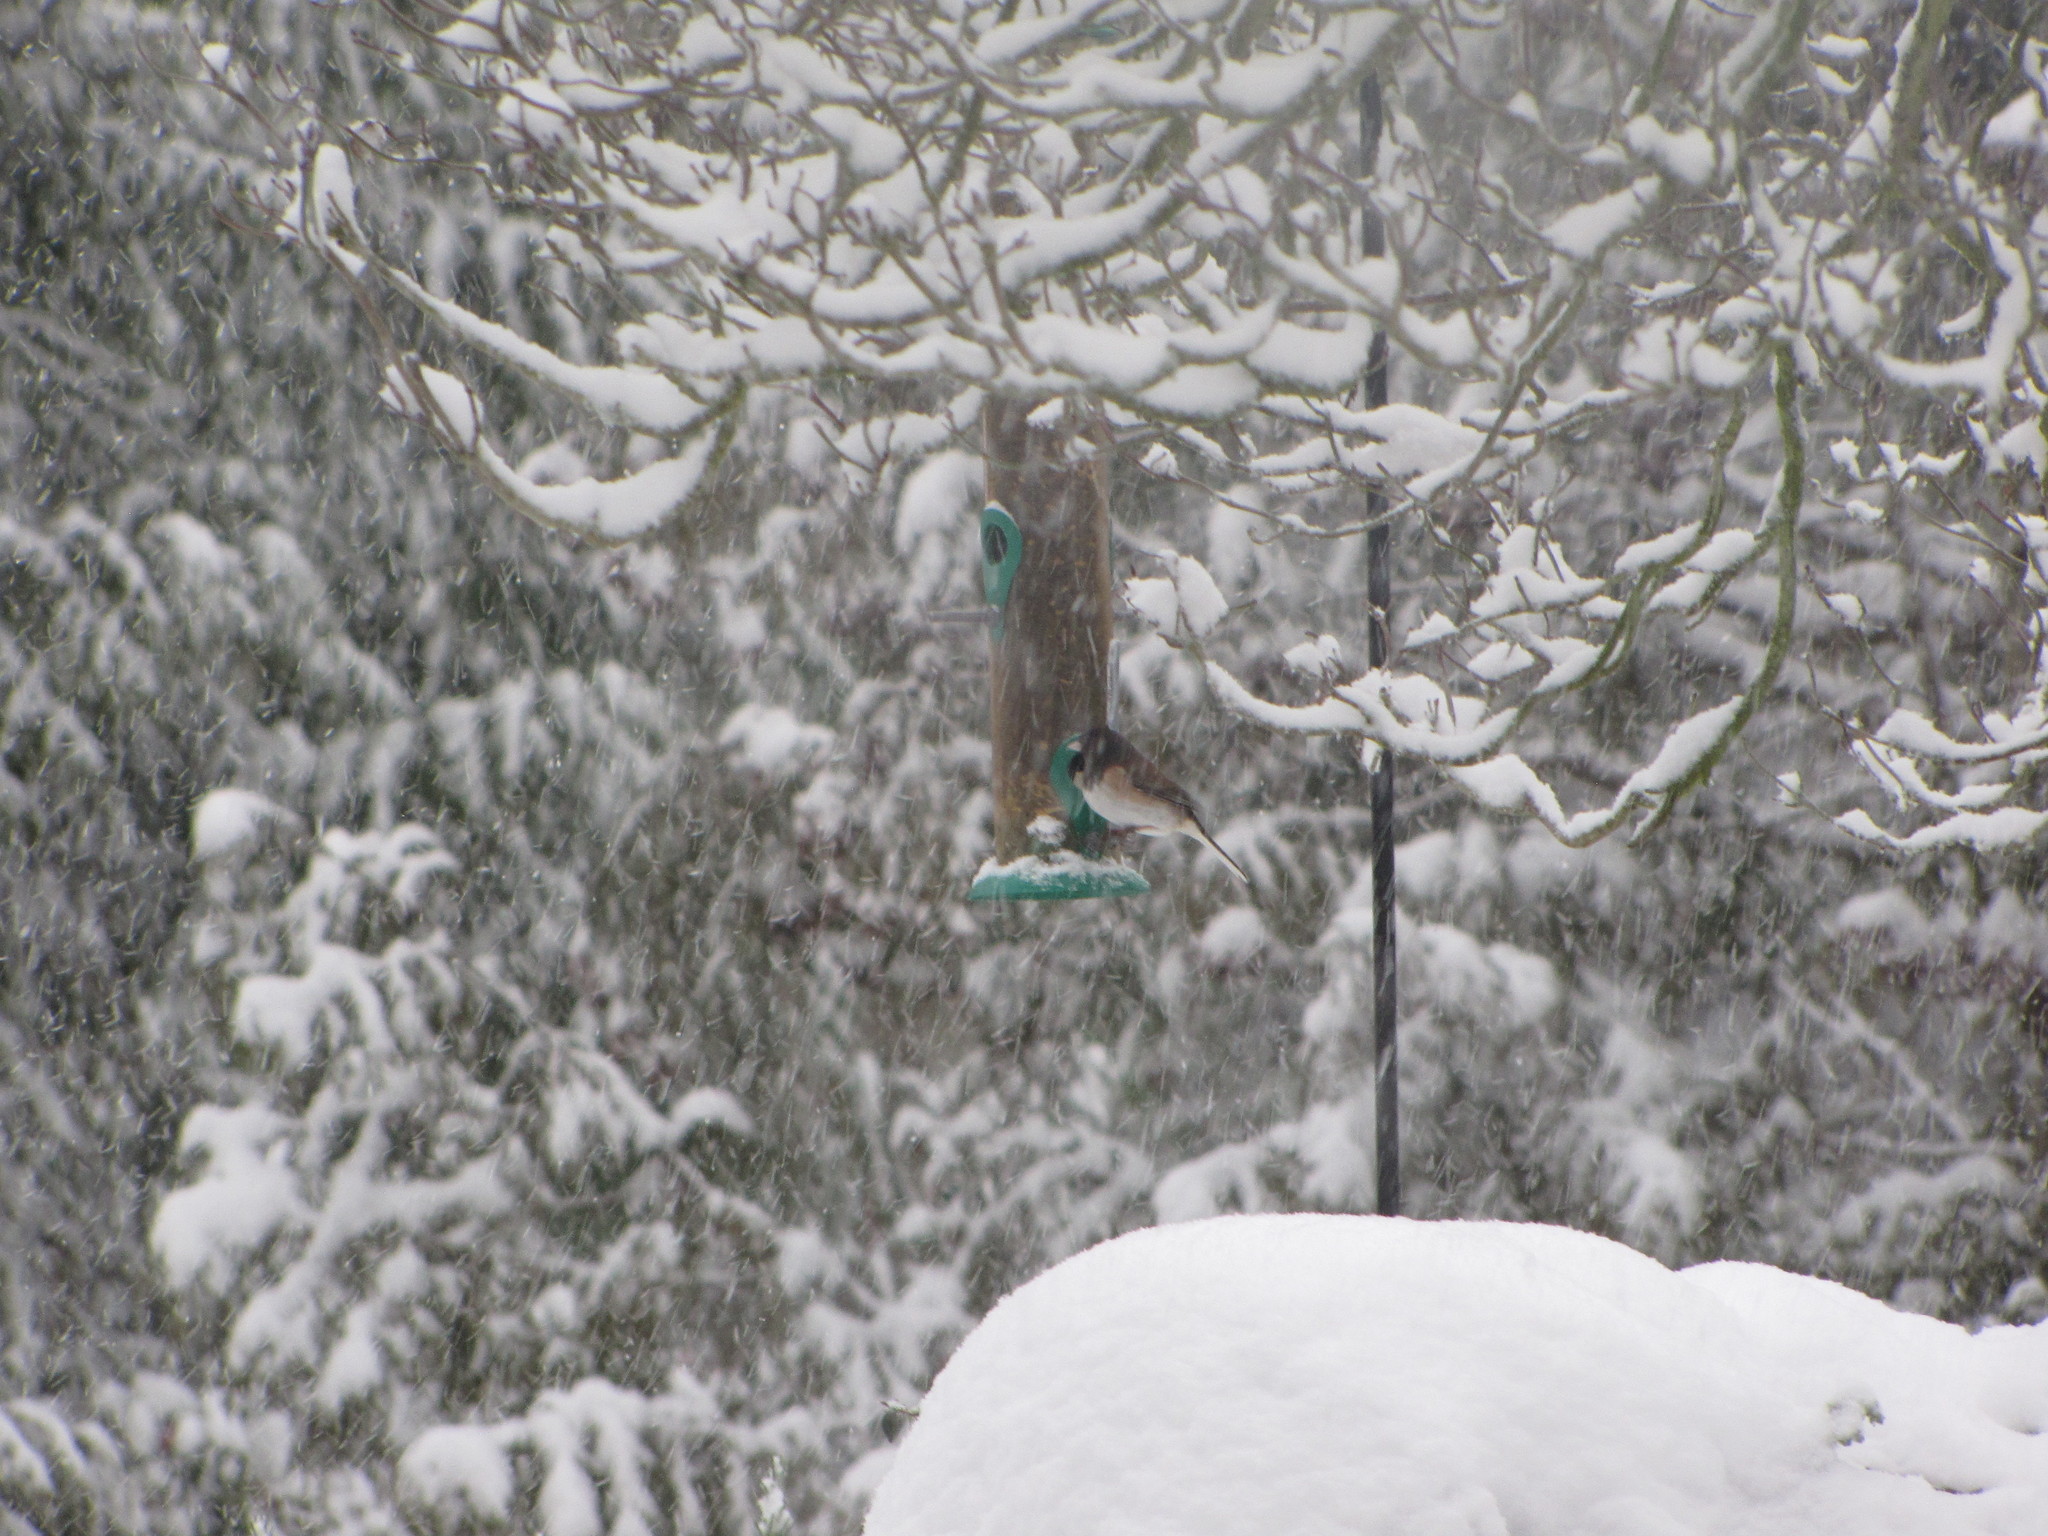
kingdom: Animalia
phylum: Chordata
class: Aves
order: Passeriformes
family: Passerellidae
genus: Junco
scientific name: Junco hyemalis
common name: Dark-eyed junco
